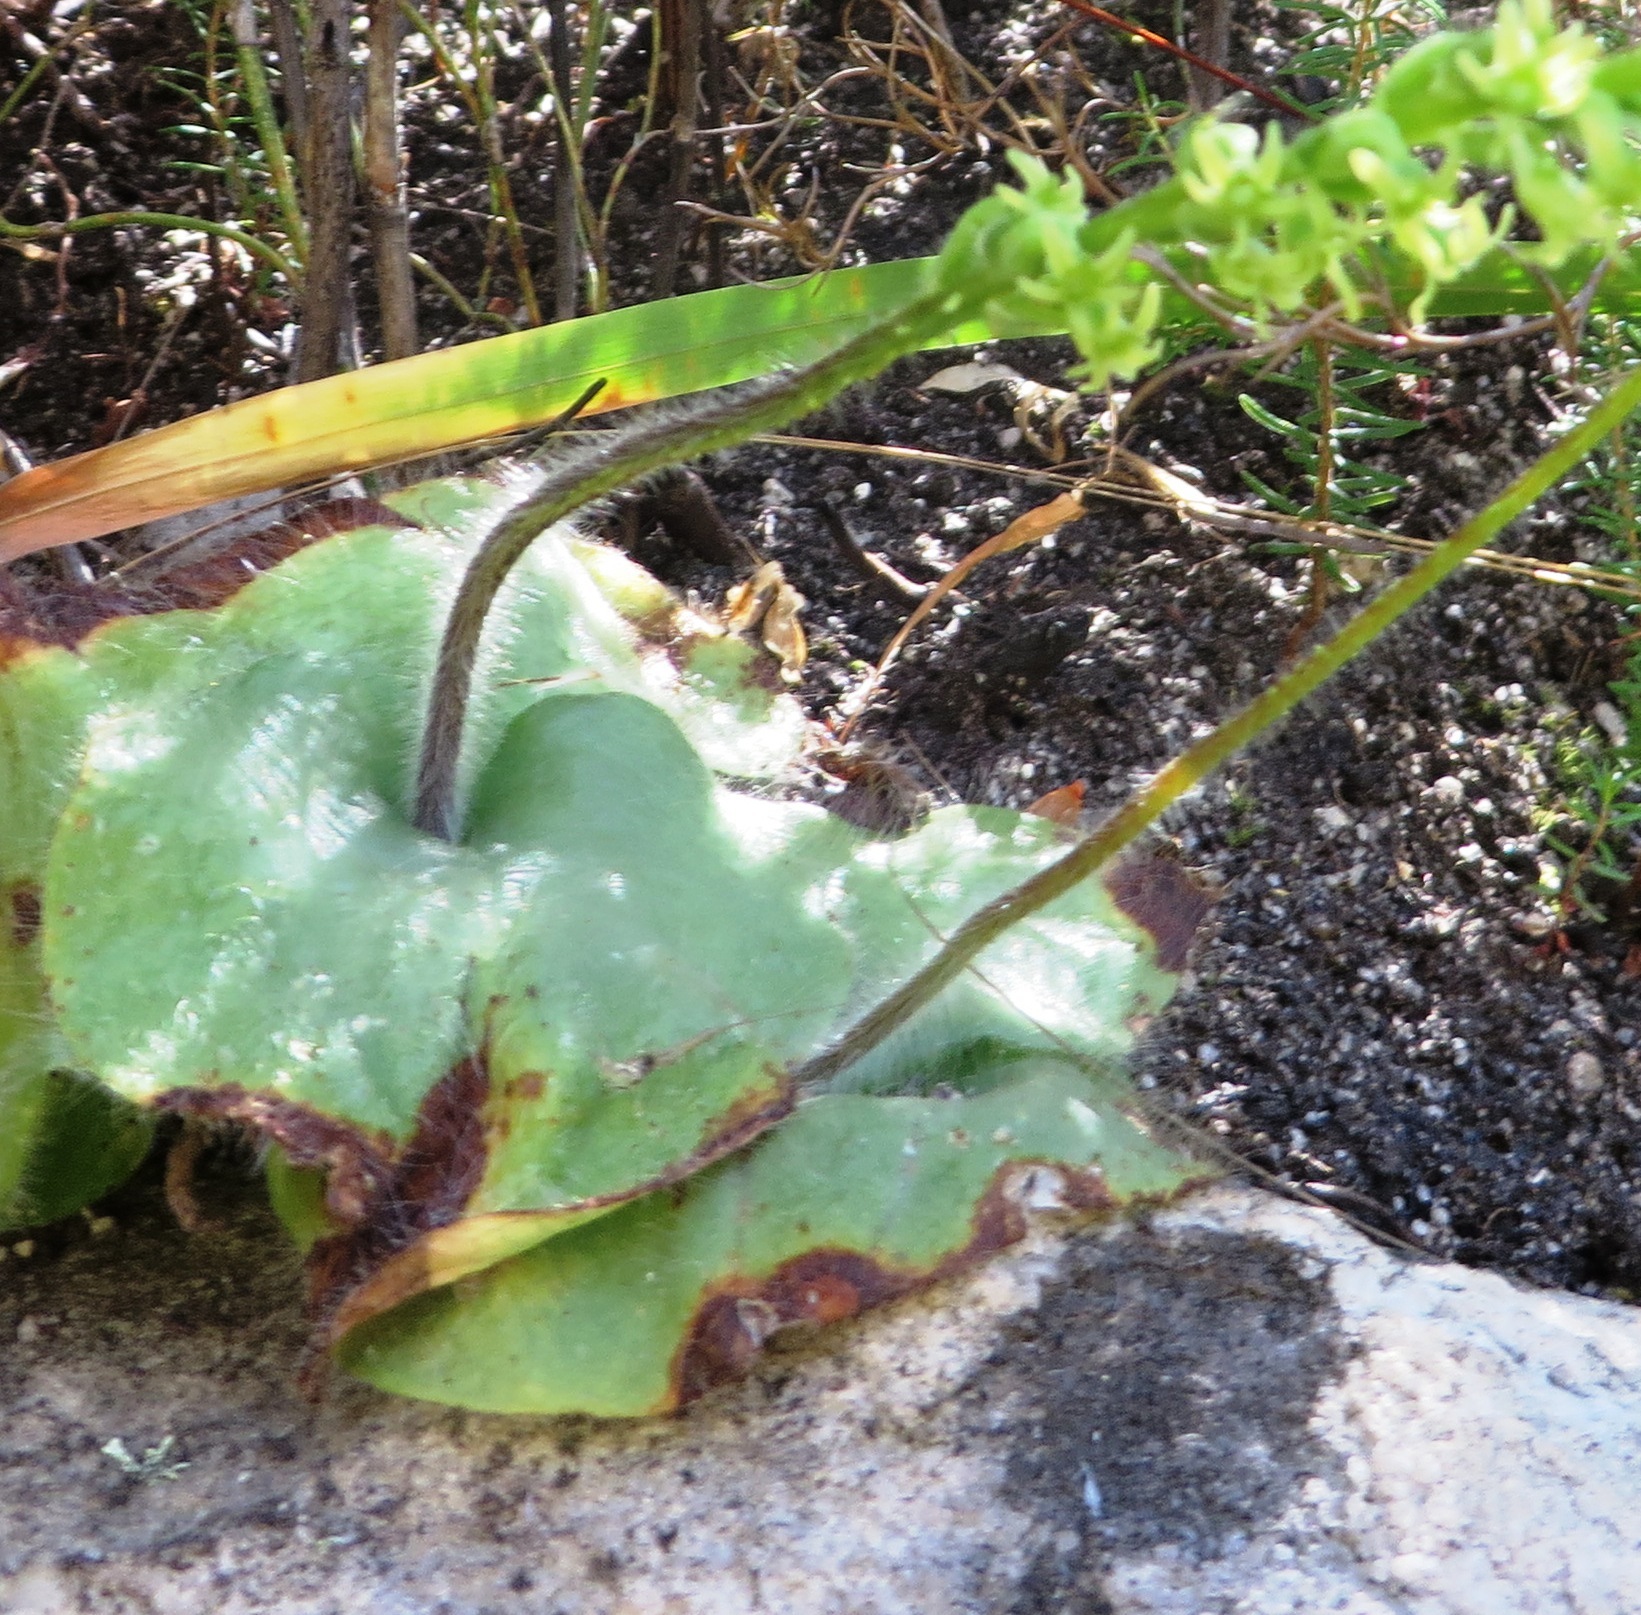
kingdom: Plantae
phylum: Tracheophyta
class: Liliopsida
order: Asparagales
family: Orchidaceae
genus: Holothrix
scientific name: Holothrix villosa
